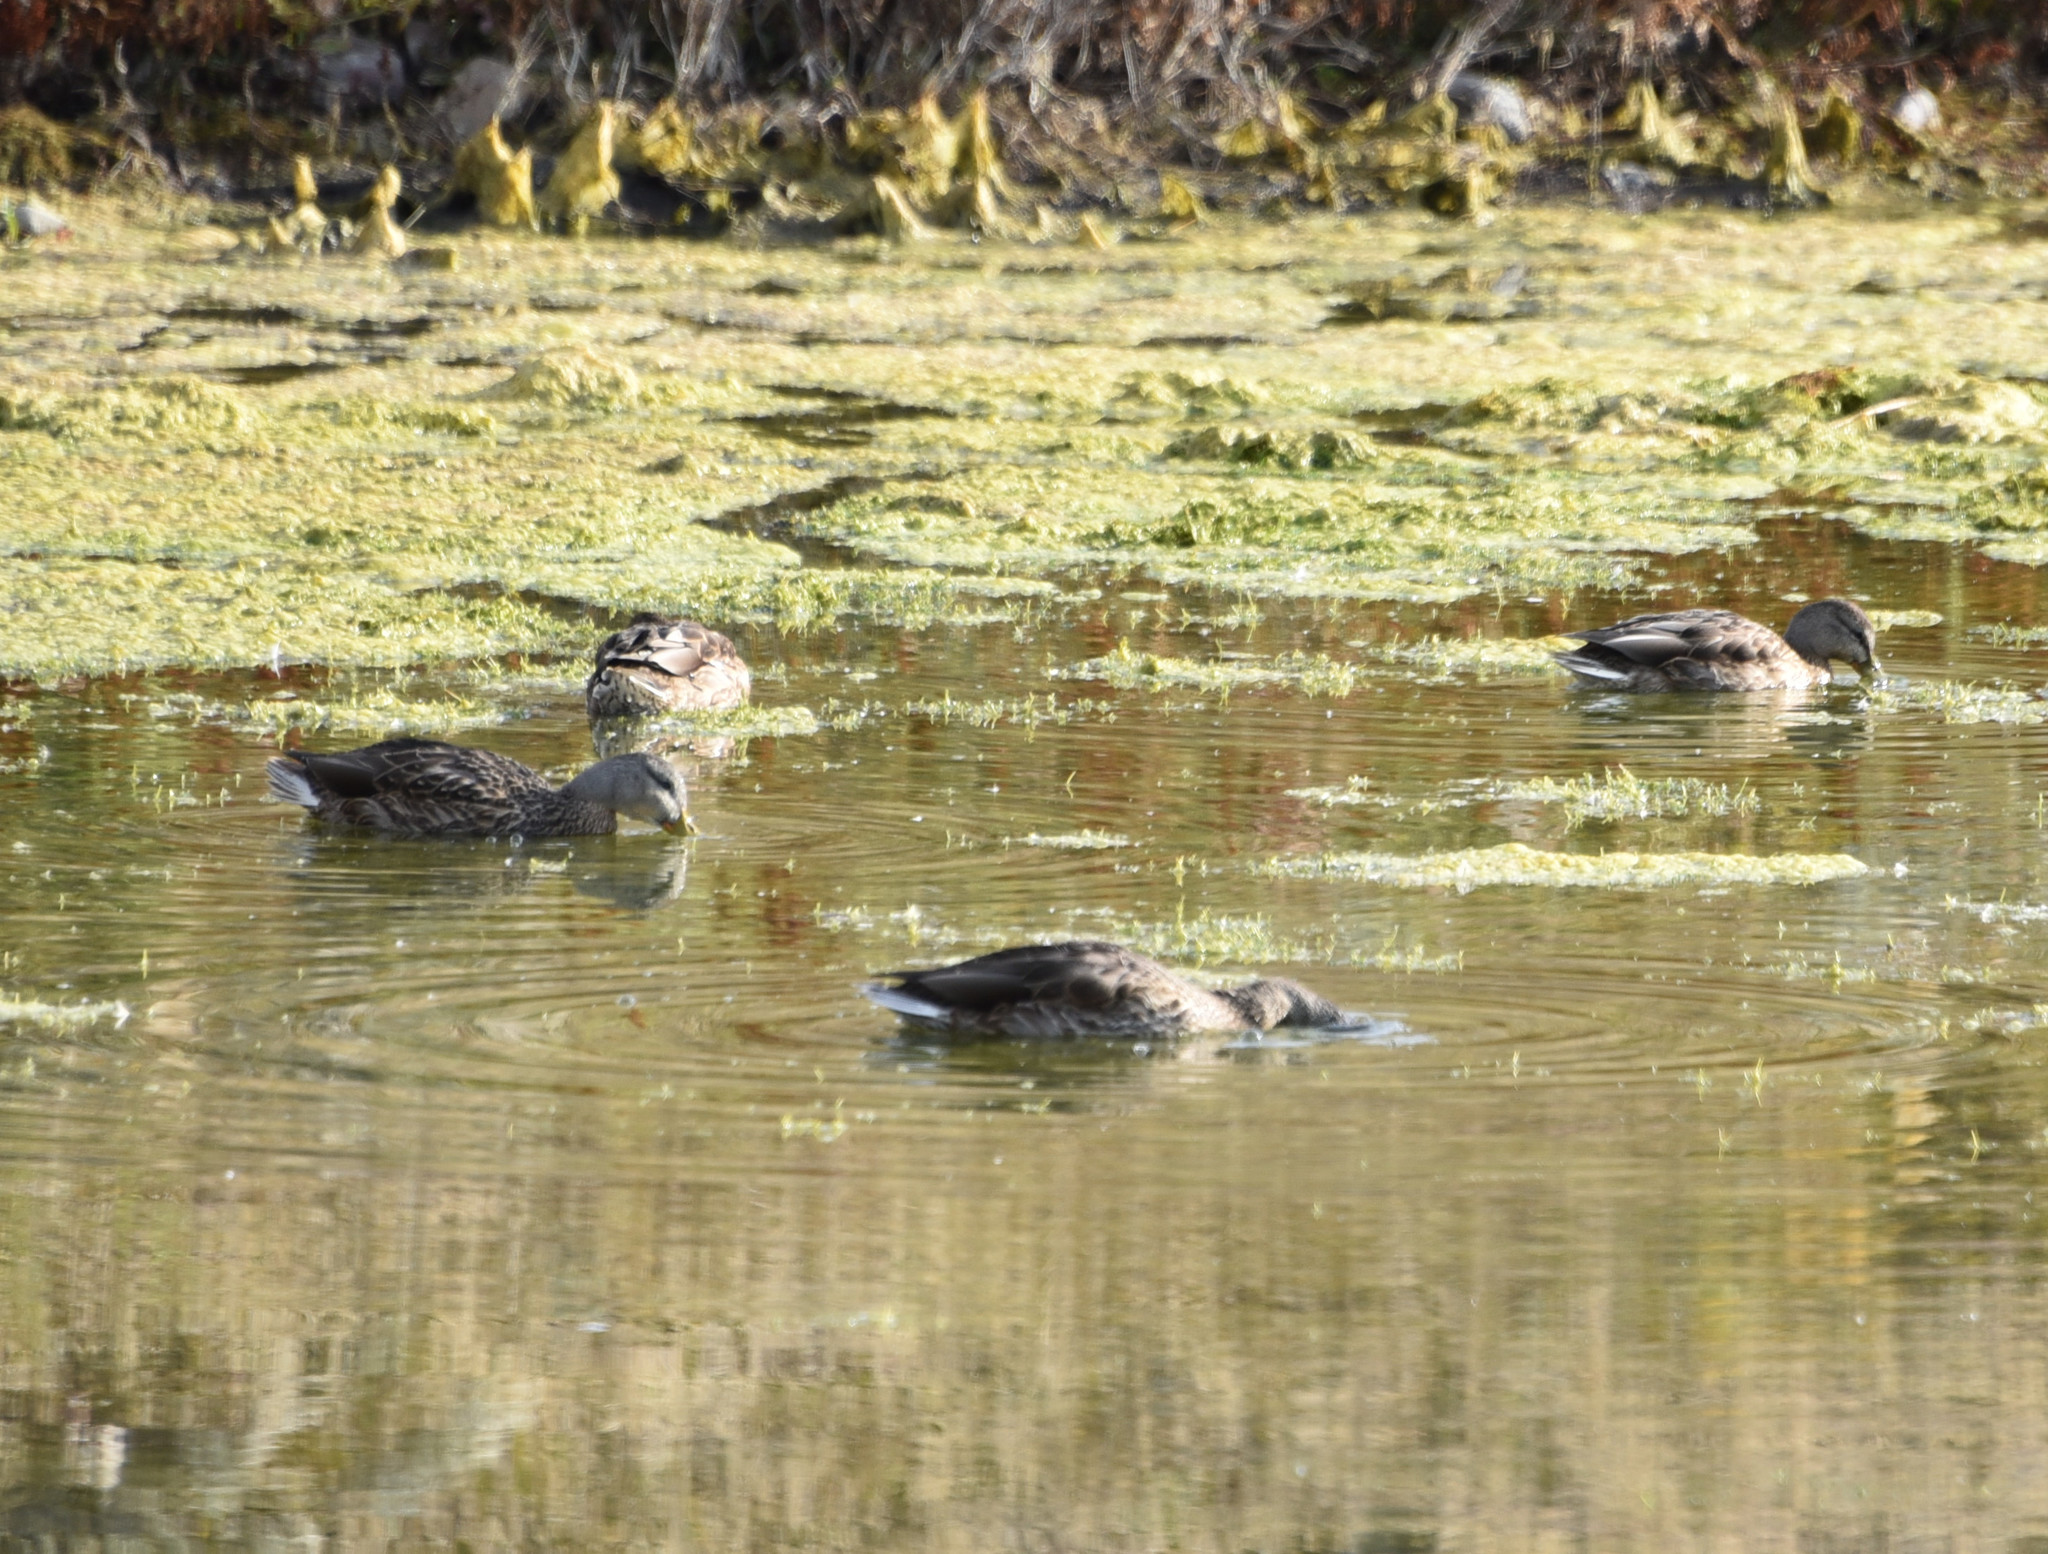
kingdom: Animalia
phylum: Chordata
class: Aves
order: Anseriformes
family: Anatidae
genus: Anas
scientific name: Anas platyrhynchos
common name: Mallard
